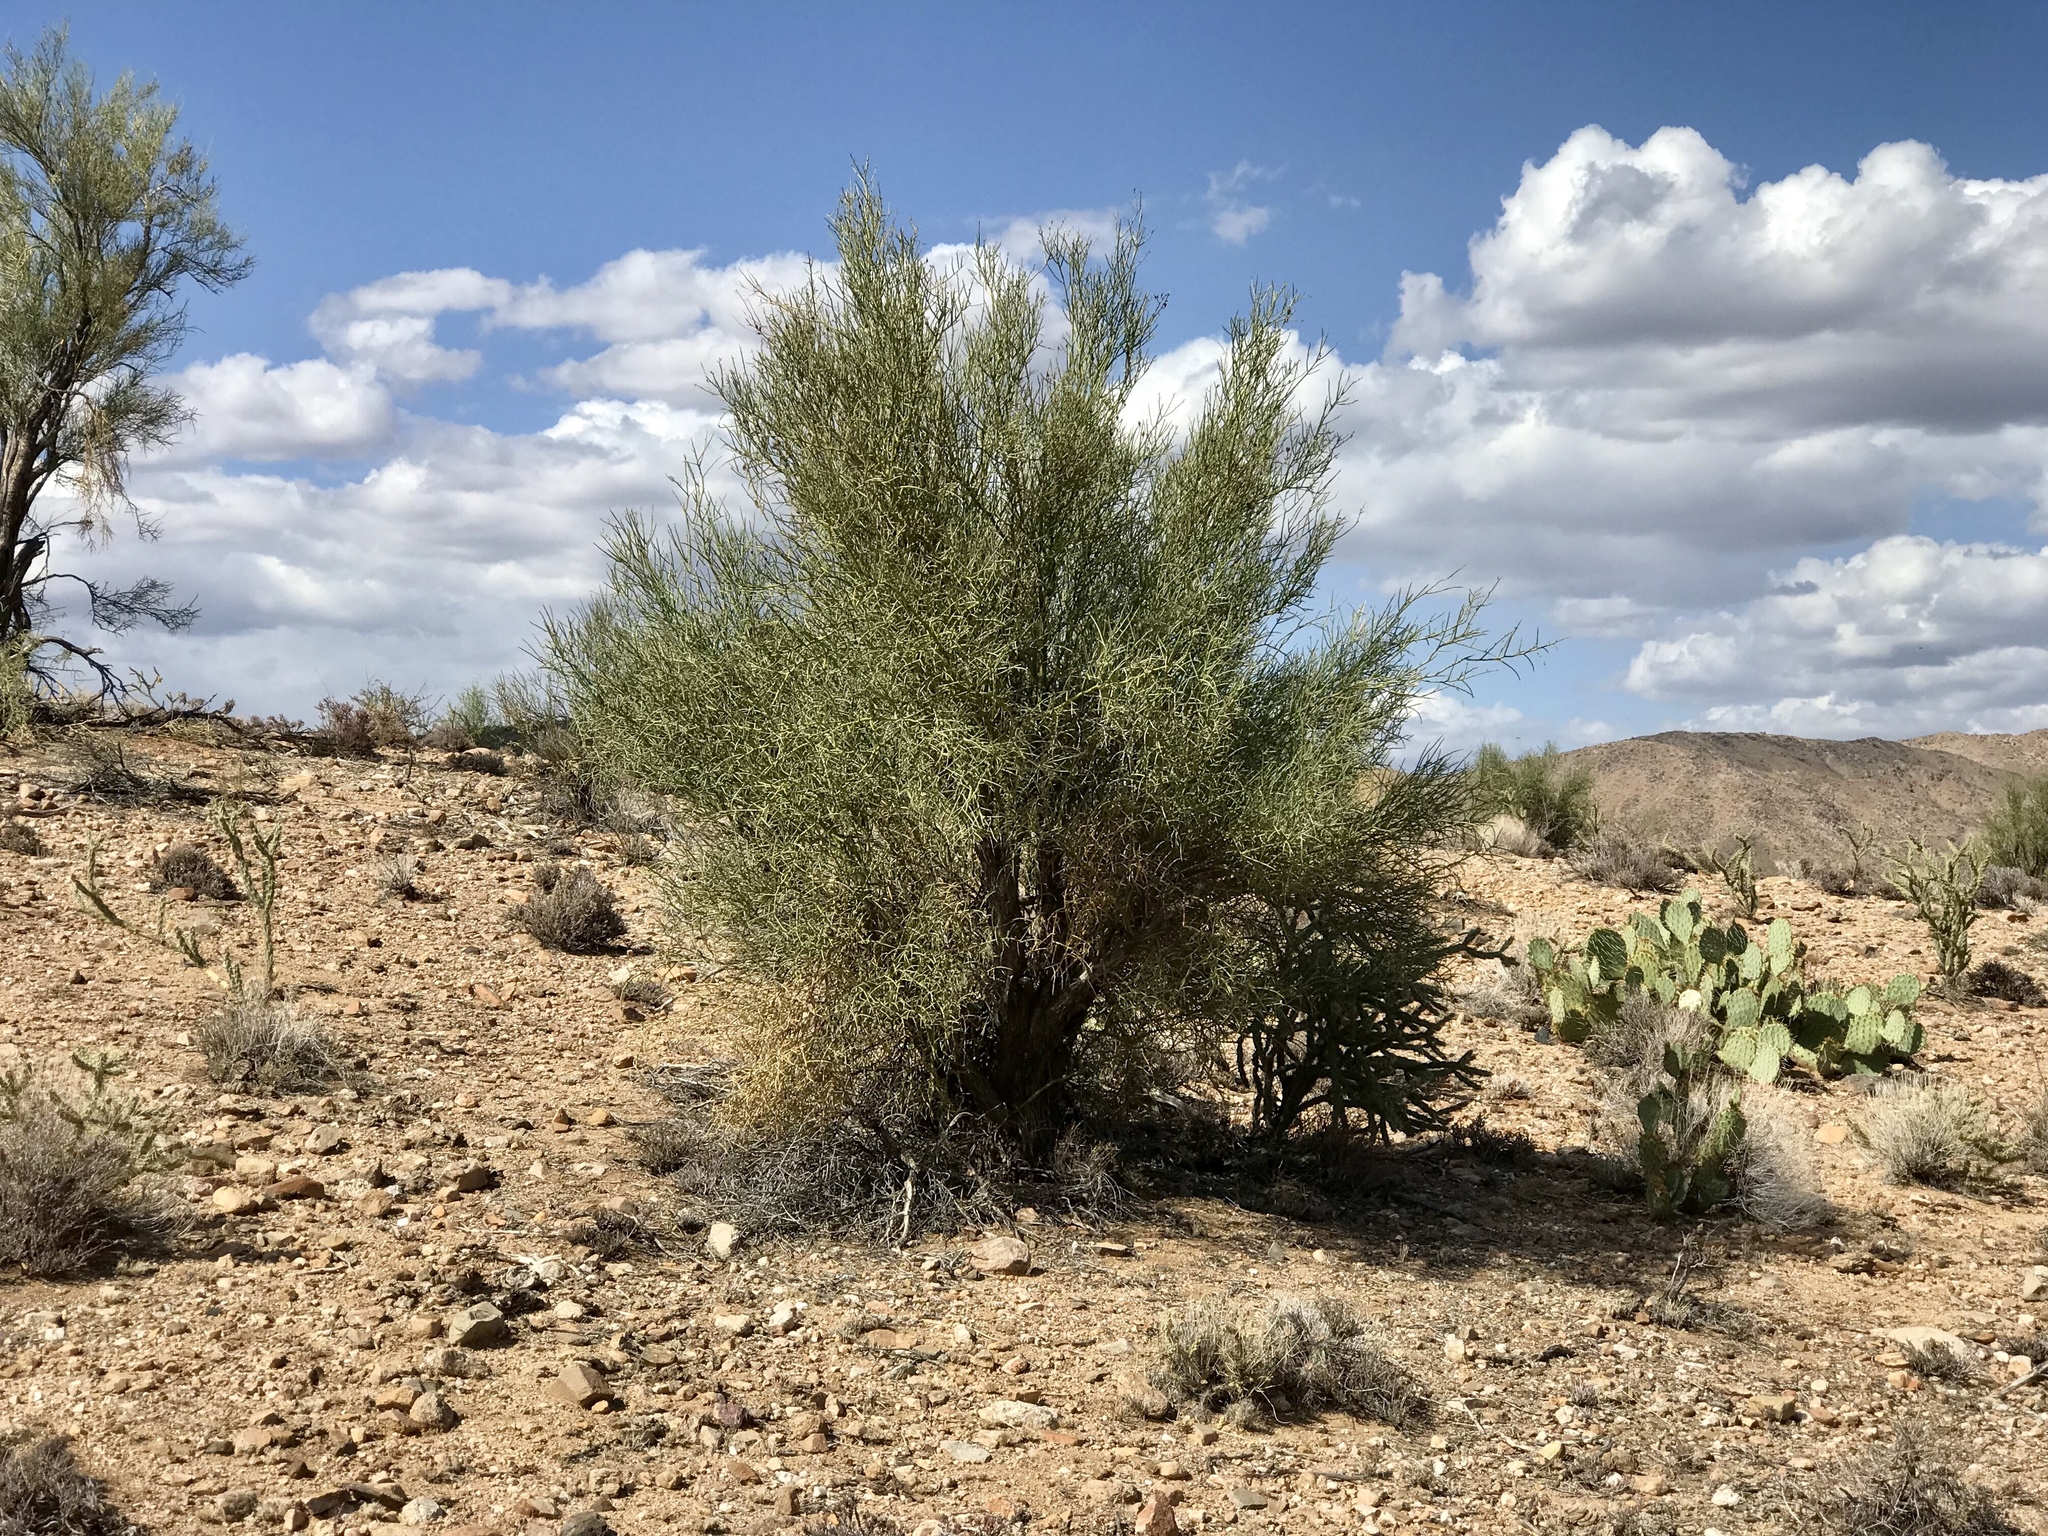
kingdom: Plantae
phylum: Tracheophyta
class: Magnoliopsida
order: Celastrales
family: Celastraceae
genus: Canotia
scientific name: Canotia holacantha
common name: Crucifixion thorns
